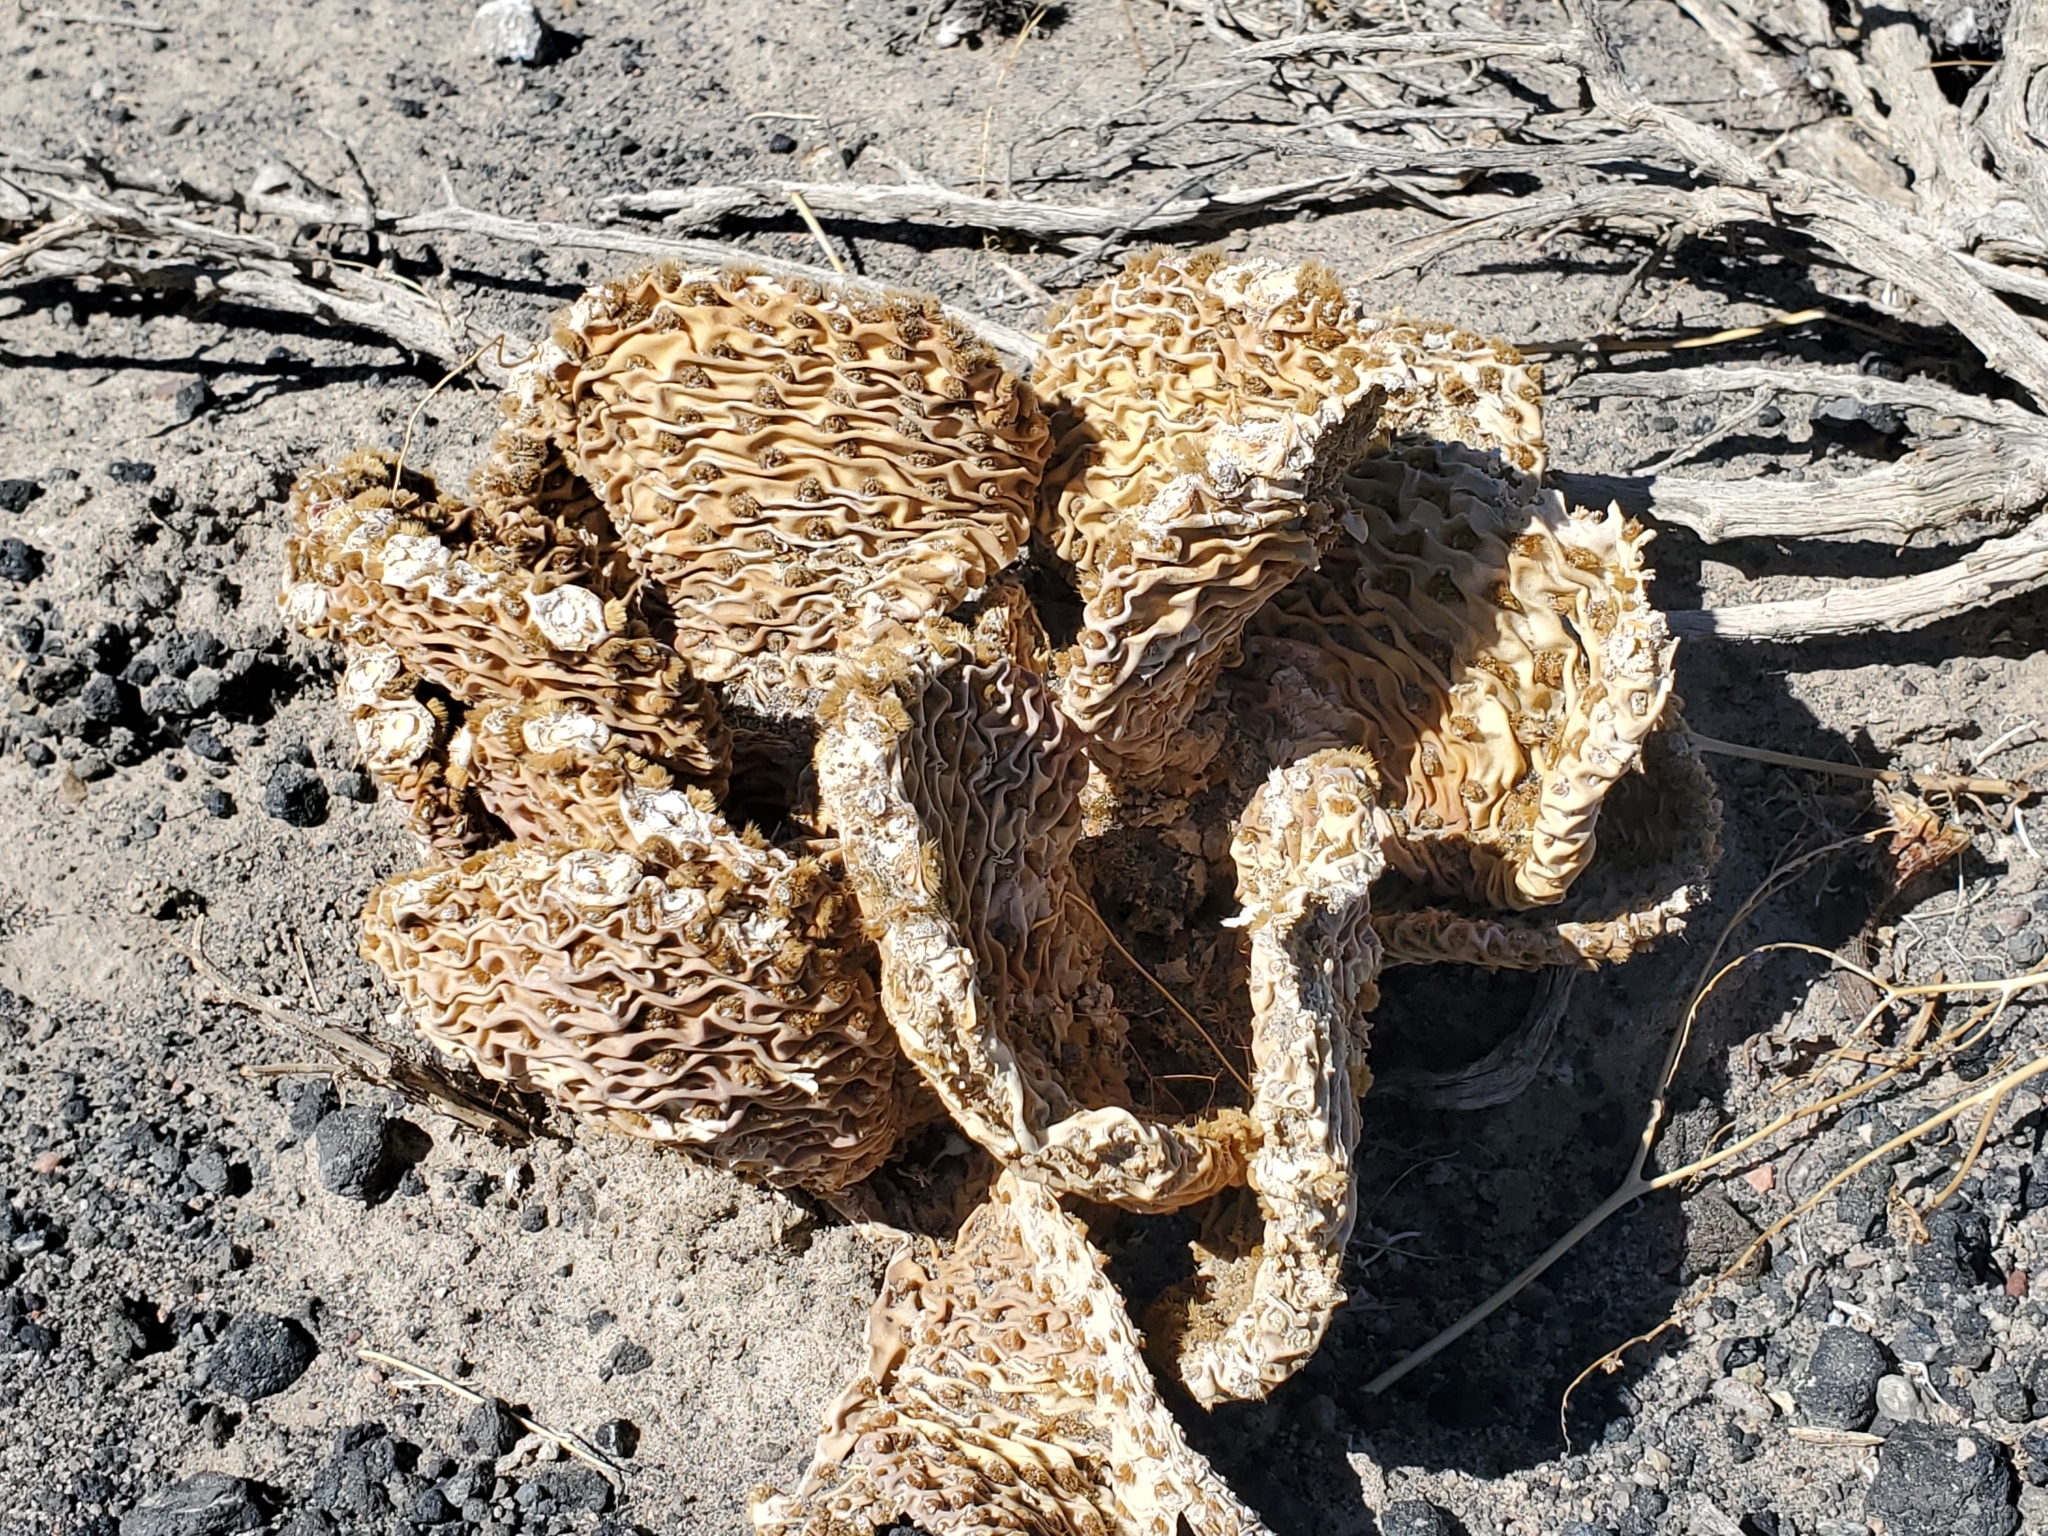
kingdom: Plantae
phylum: Tracheophyta
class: Magnoliopsida
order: Caryophyllales
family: Cactaceae
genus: Opuntia
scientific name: Opuntia basilaris
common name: Beavertail prickly-pear
